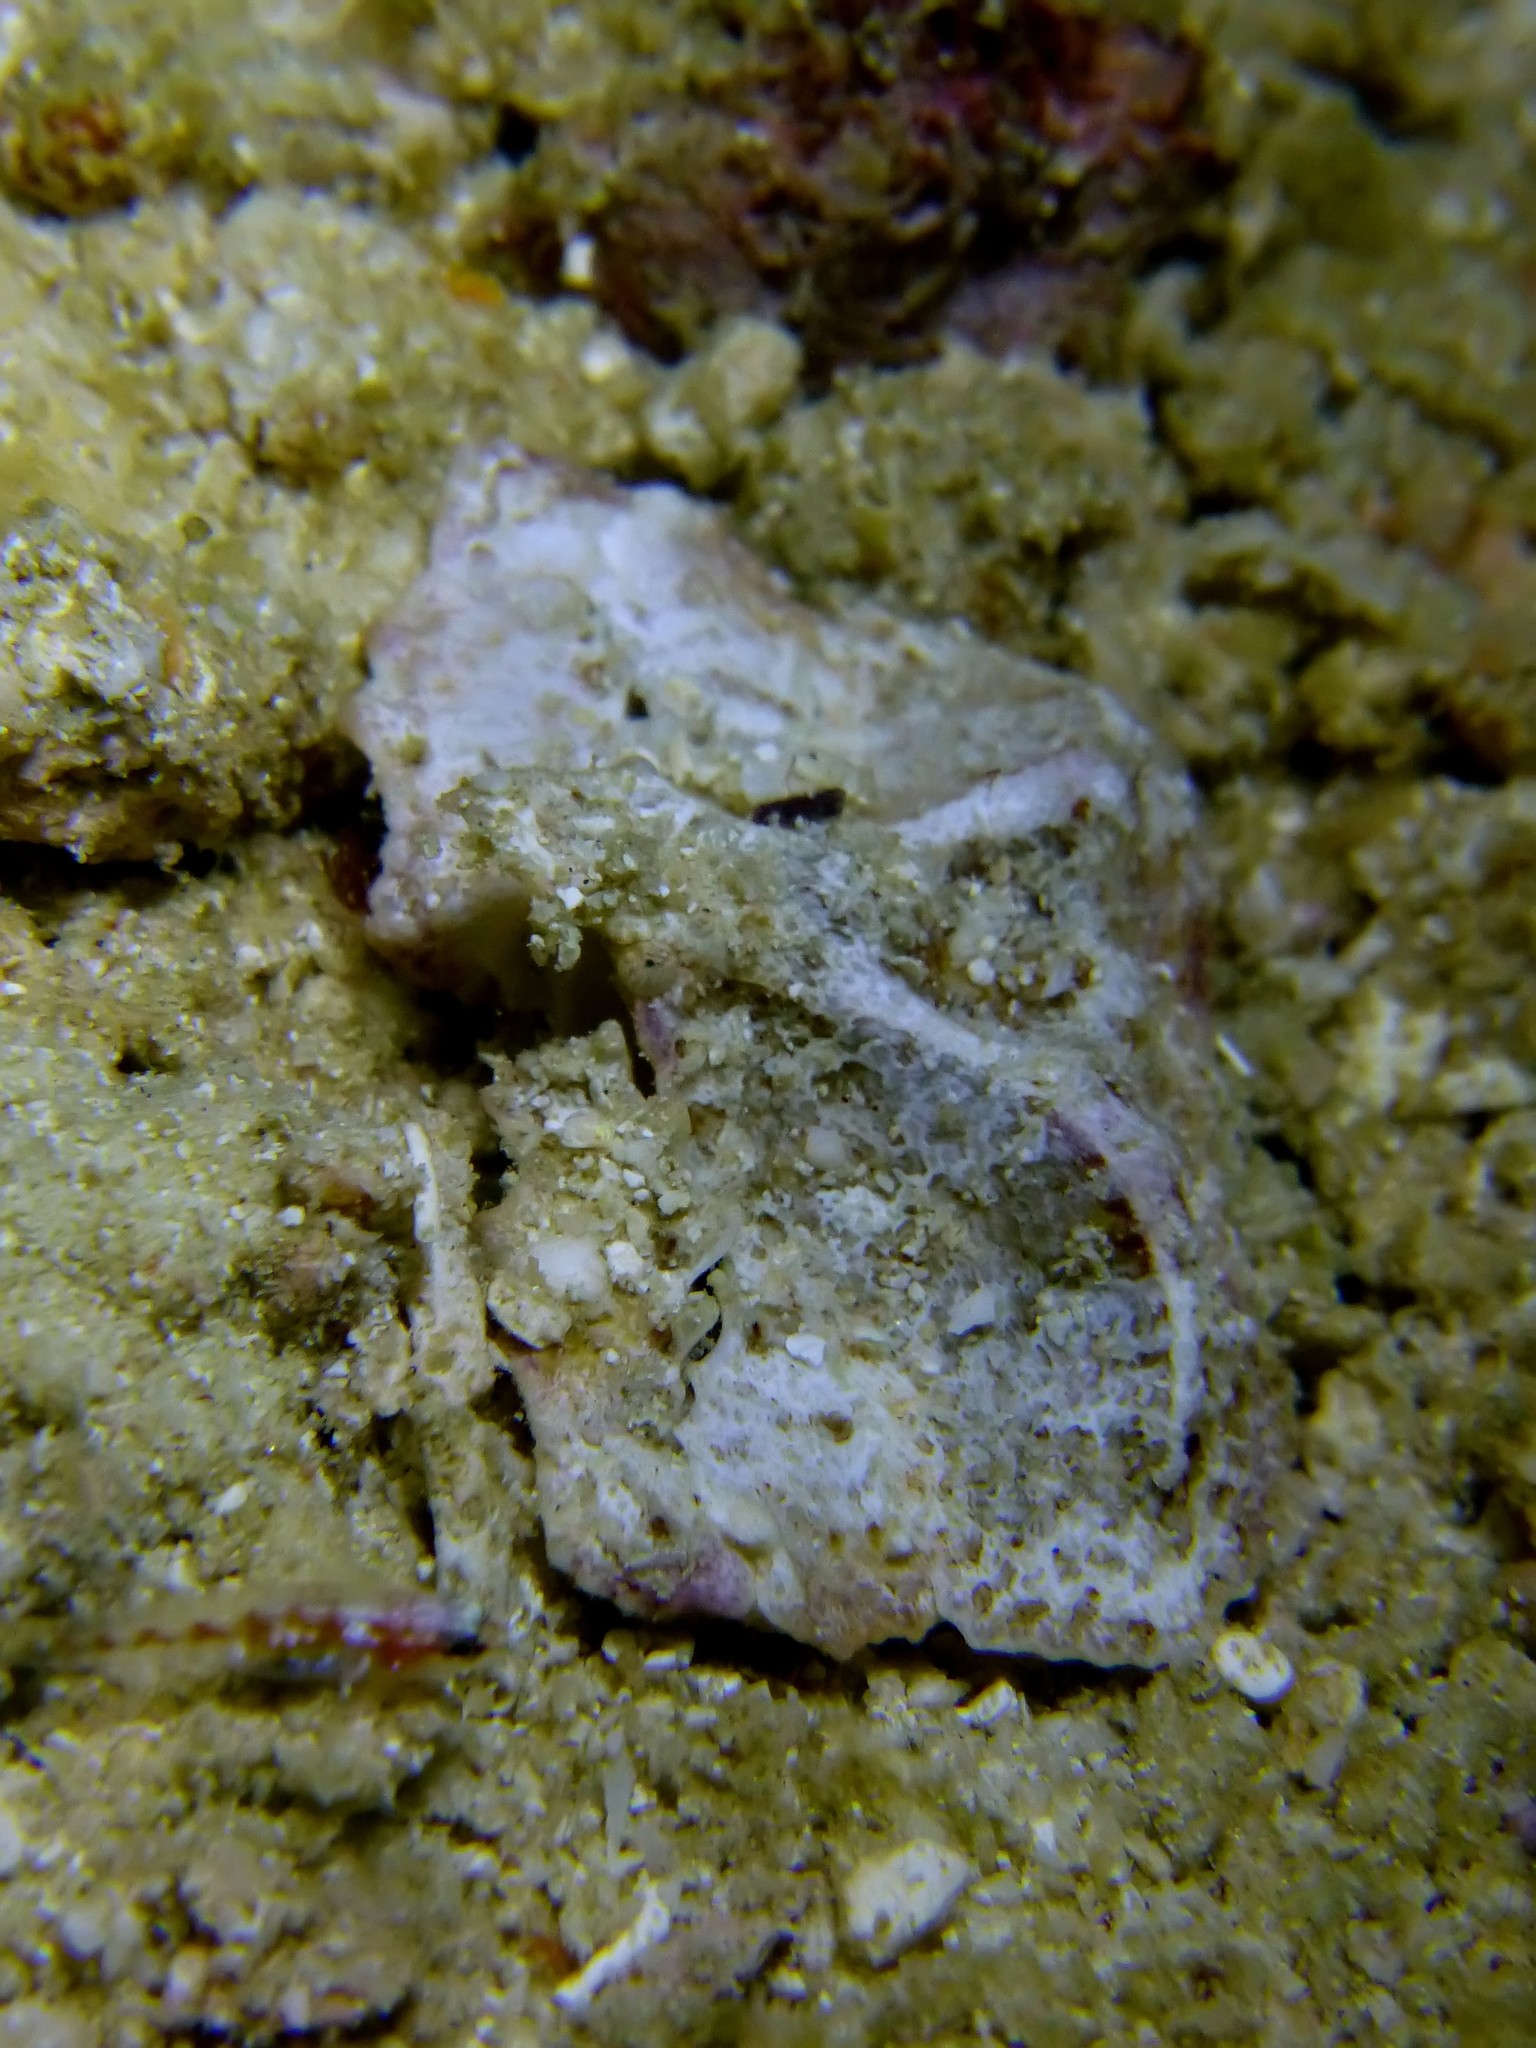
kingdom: Animalia
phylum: Arthropoda
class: Malacostraca
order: Decapoda
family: Parthenopidae
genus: Cryptopodia
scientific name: Cryptopodia laevimana
